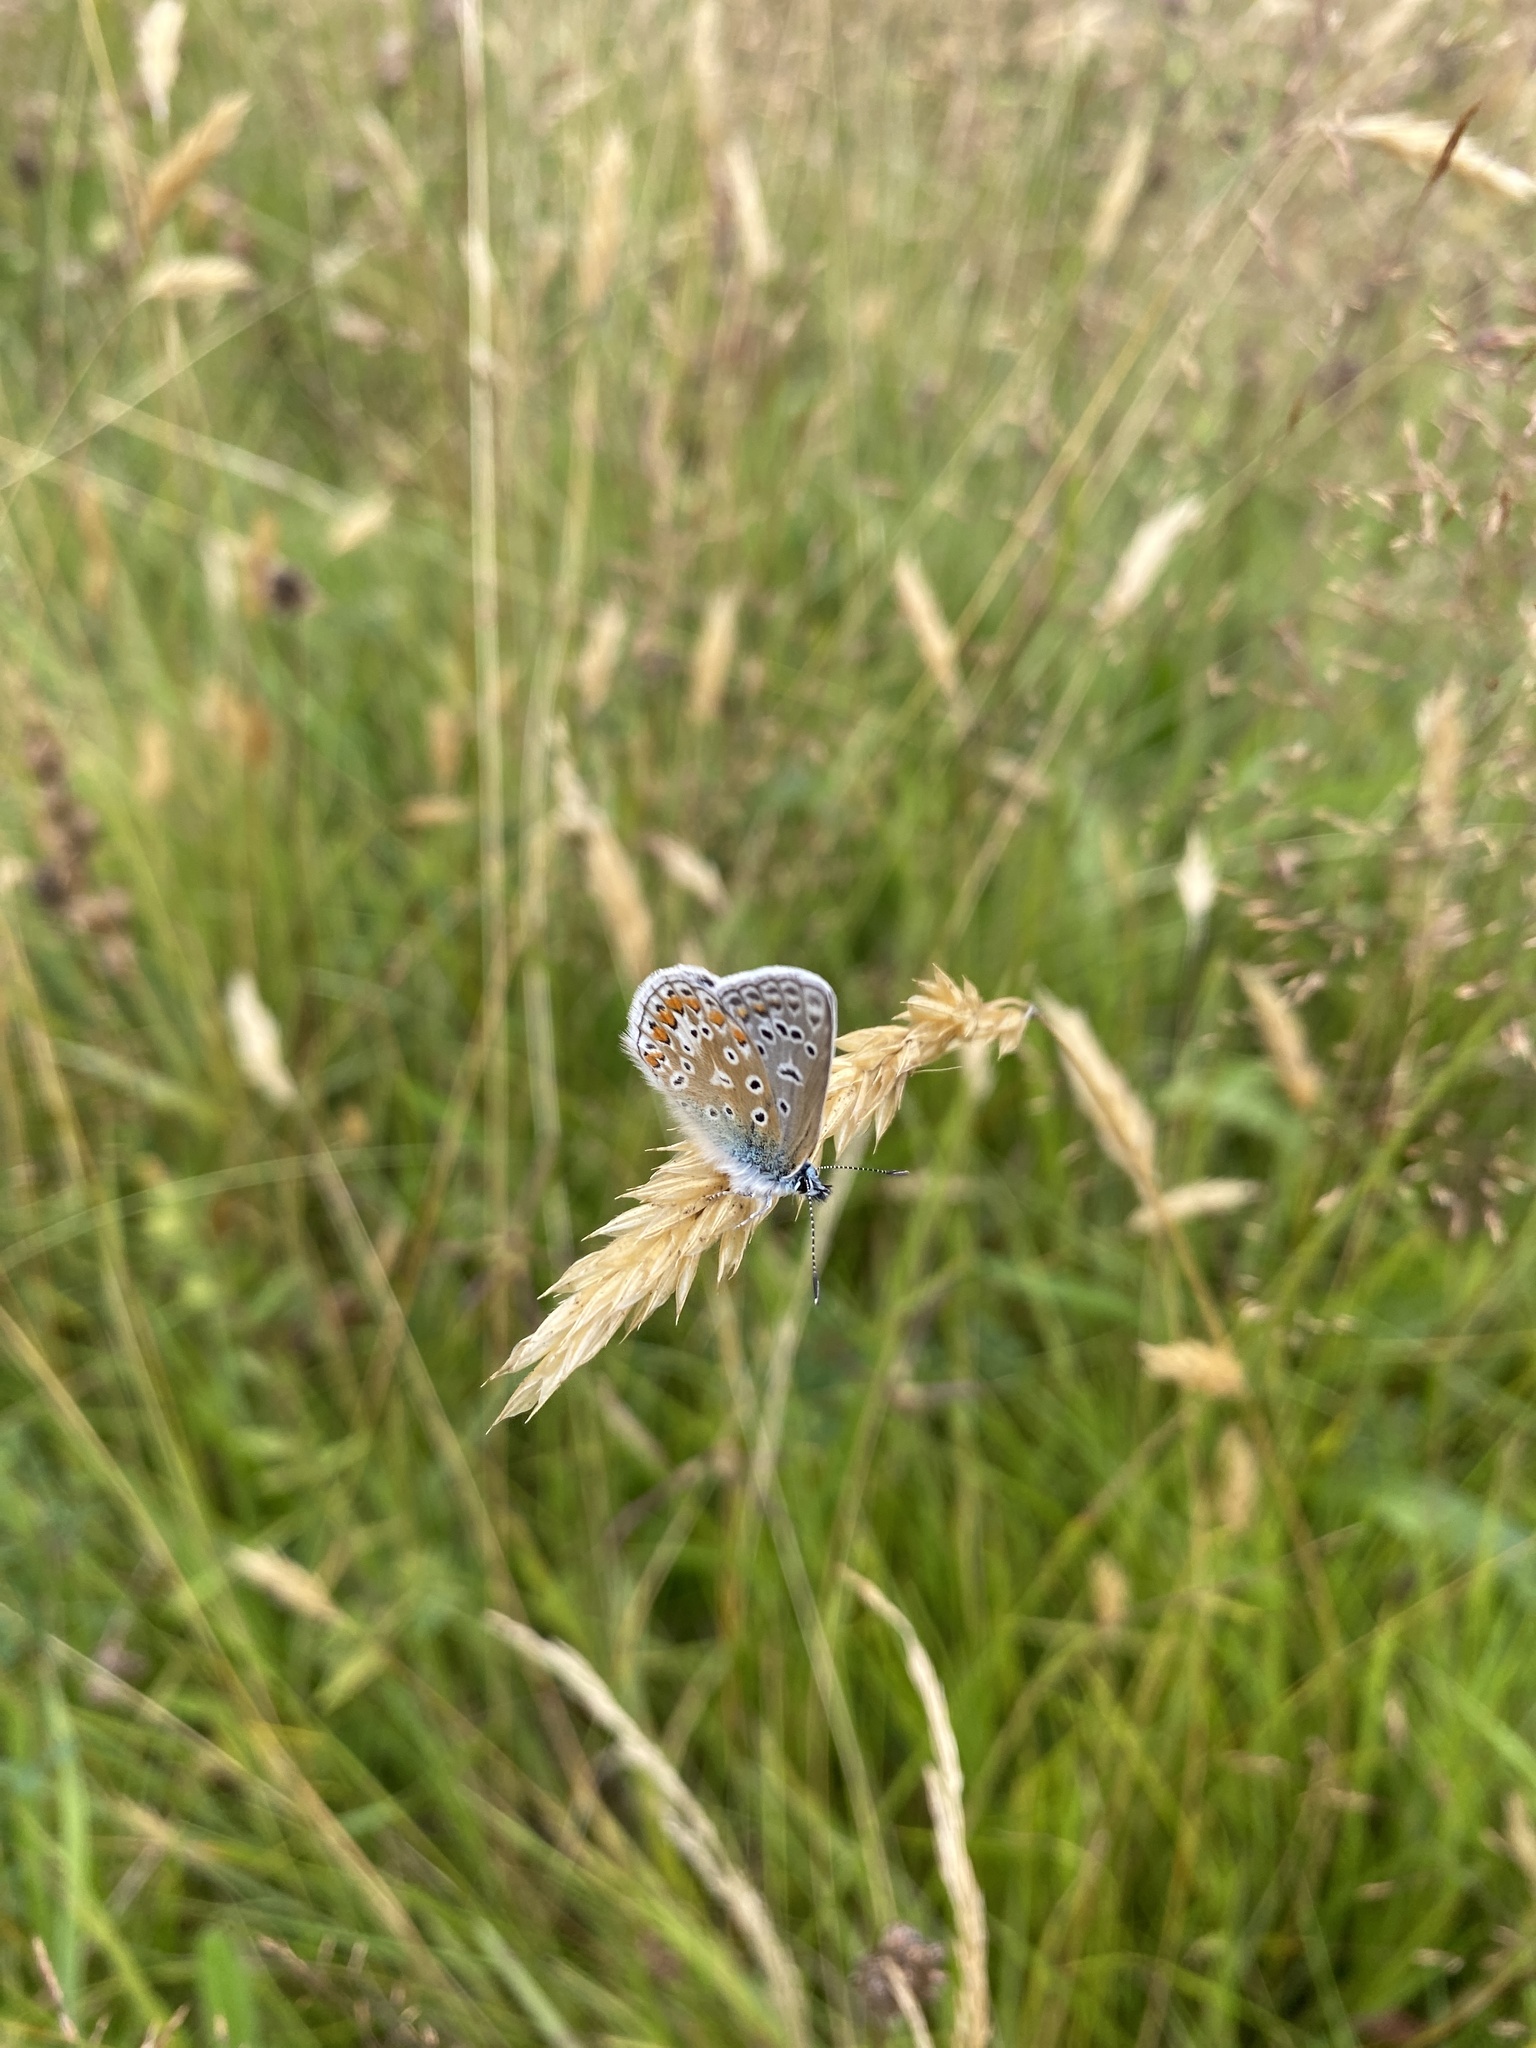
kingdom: Animalia
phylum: Arthropoda
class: Insecta
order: Lepidoptera
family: Lycaenidae
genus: Polyommatus
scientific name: Polyommatus icarus
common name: Common blue
